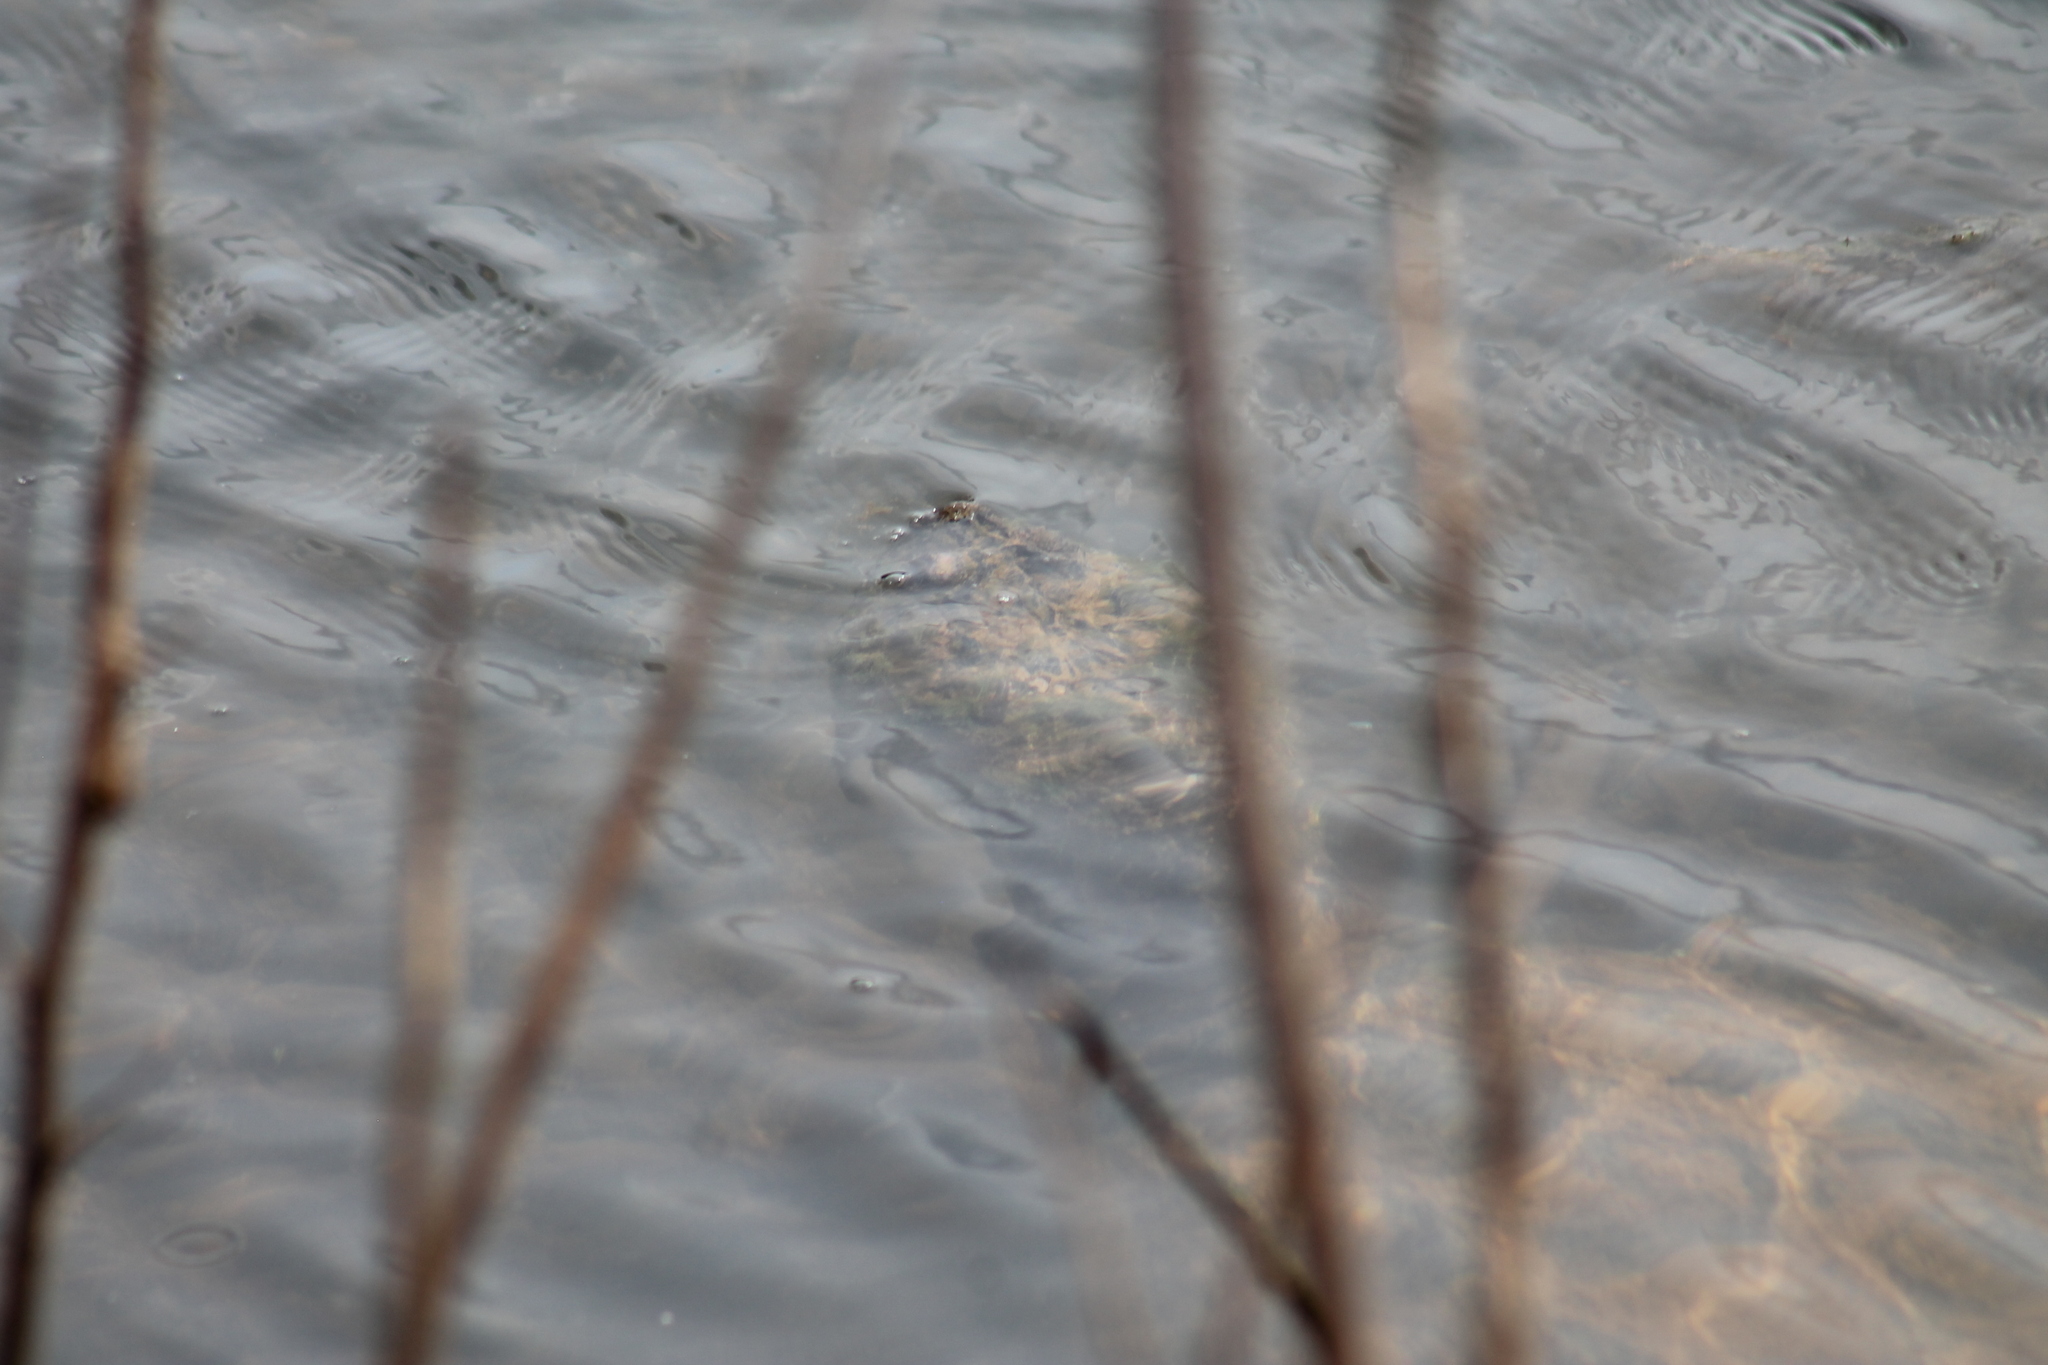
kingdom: Animalia
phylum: Chordata
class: Testudines
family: Chelydridae
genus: Chelydra
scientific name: Chelydra serpentina
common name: Common snapping turtle
